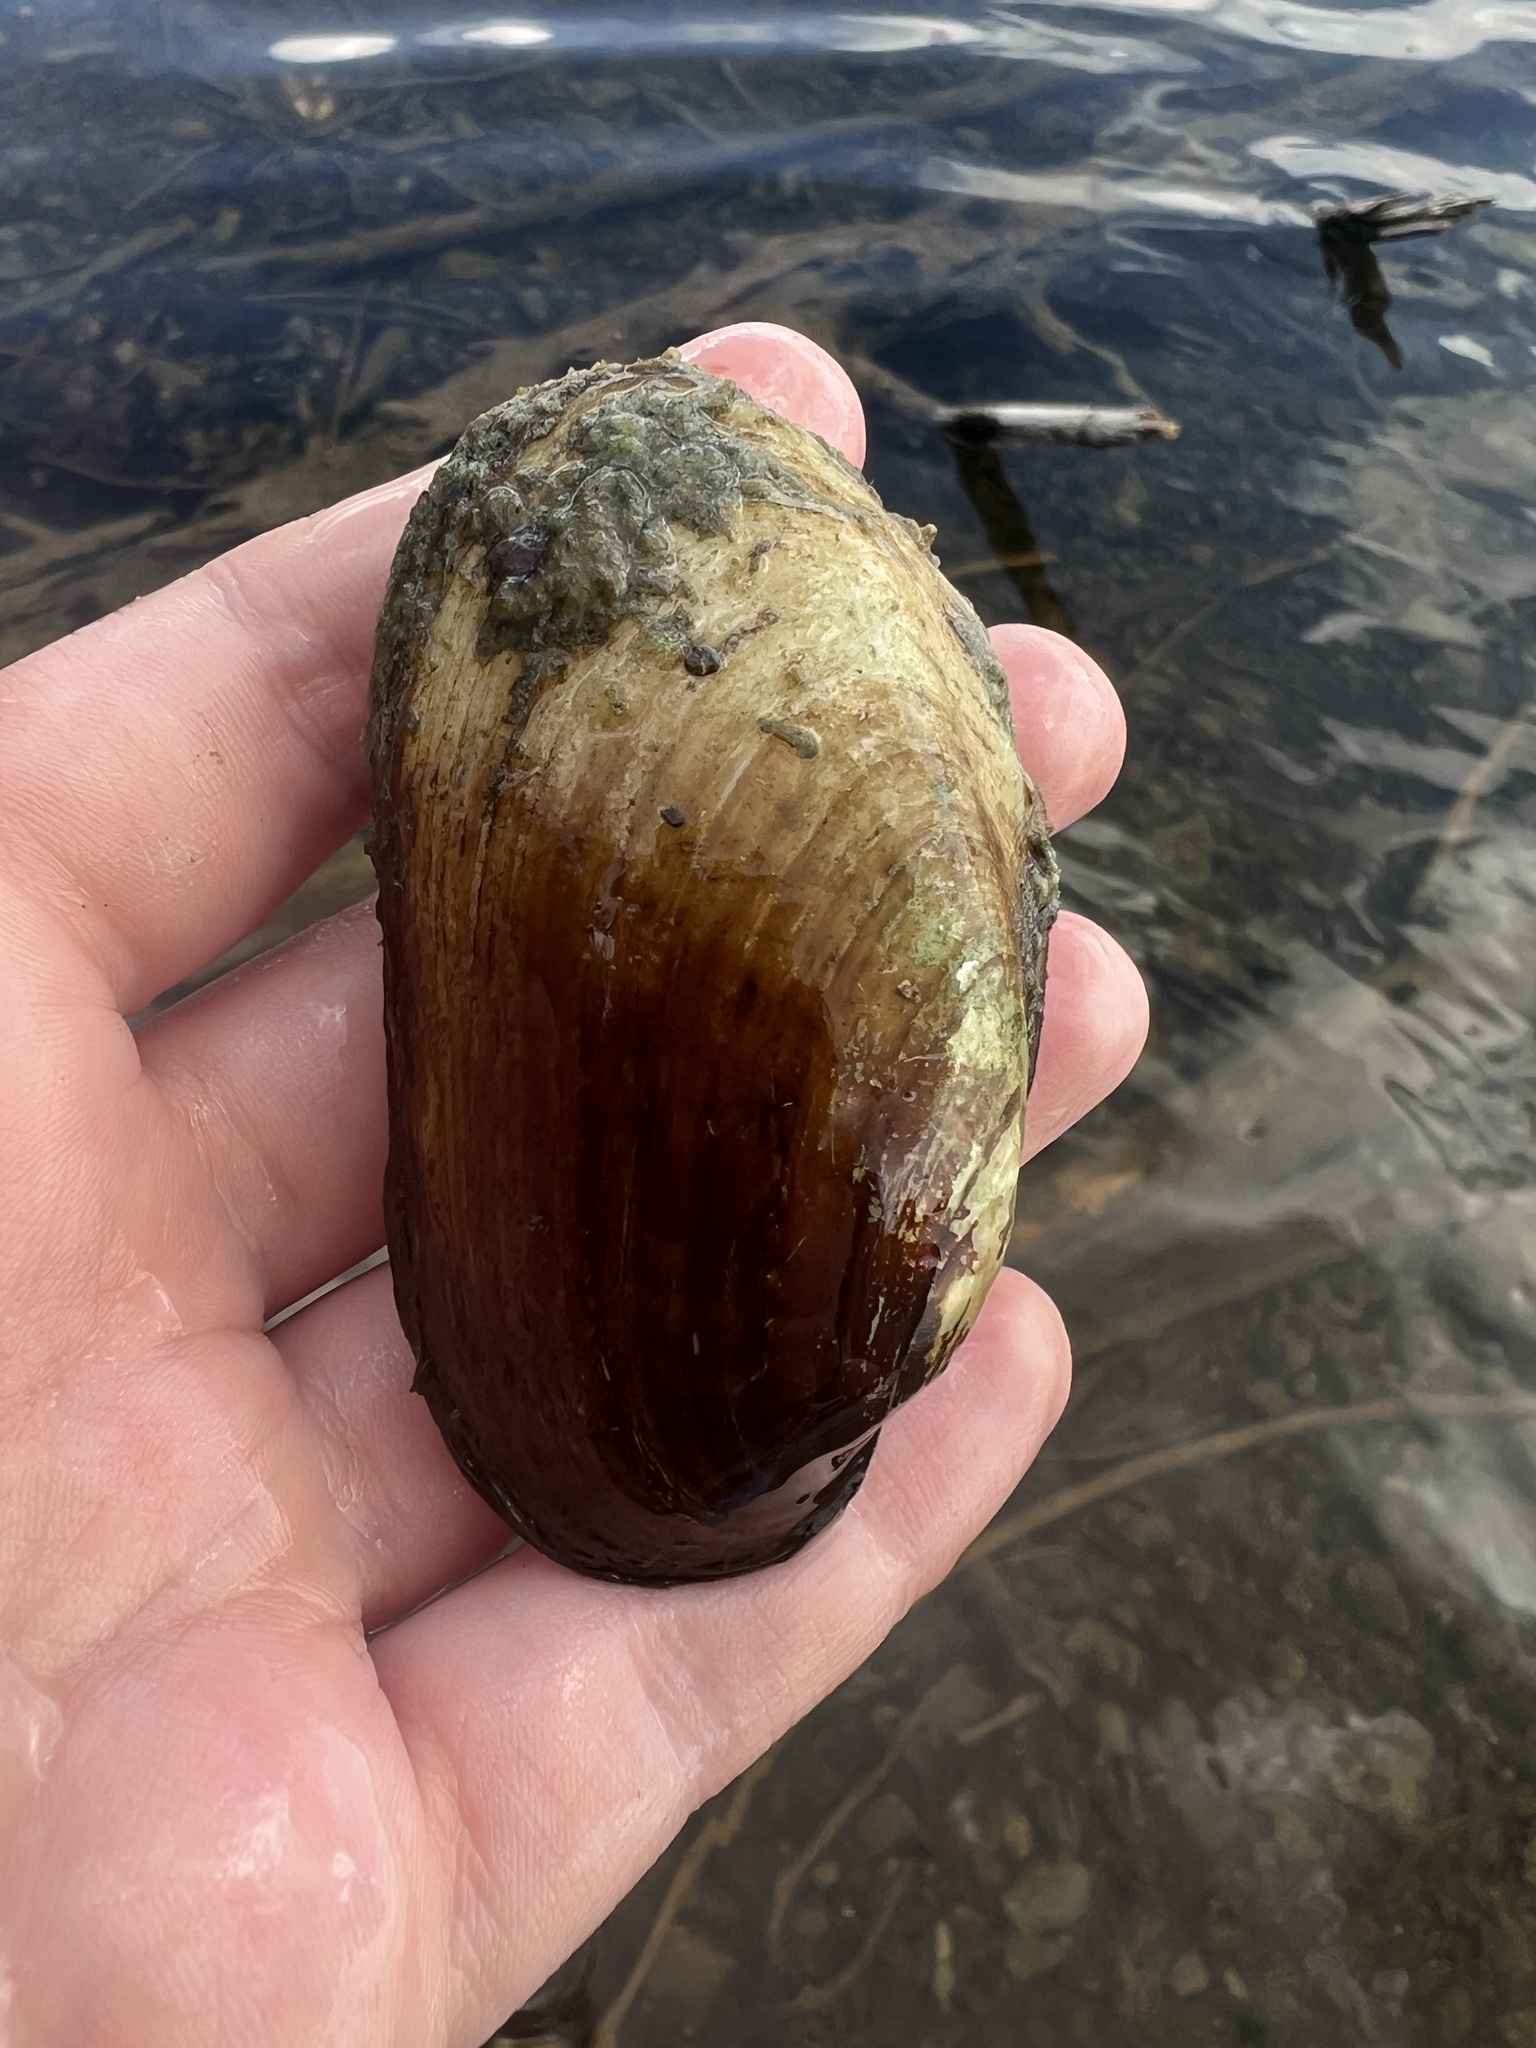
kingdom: Animalia
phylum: Mollusca
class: Bivalvia
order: Unionida
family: Unionidae
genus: Lampsilis
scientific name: Lampsilis siliquoidea
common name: Fatmucket
